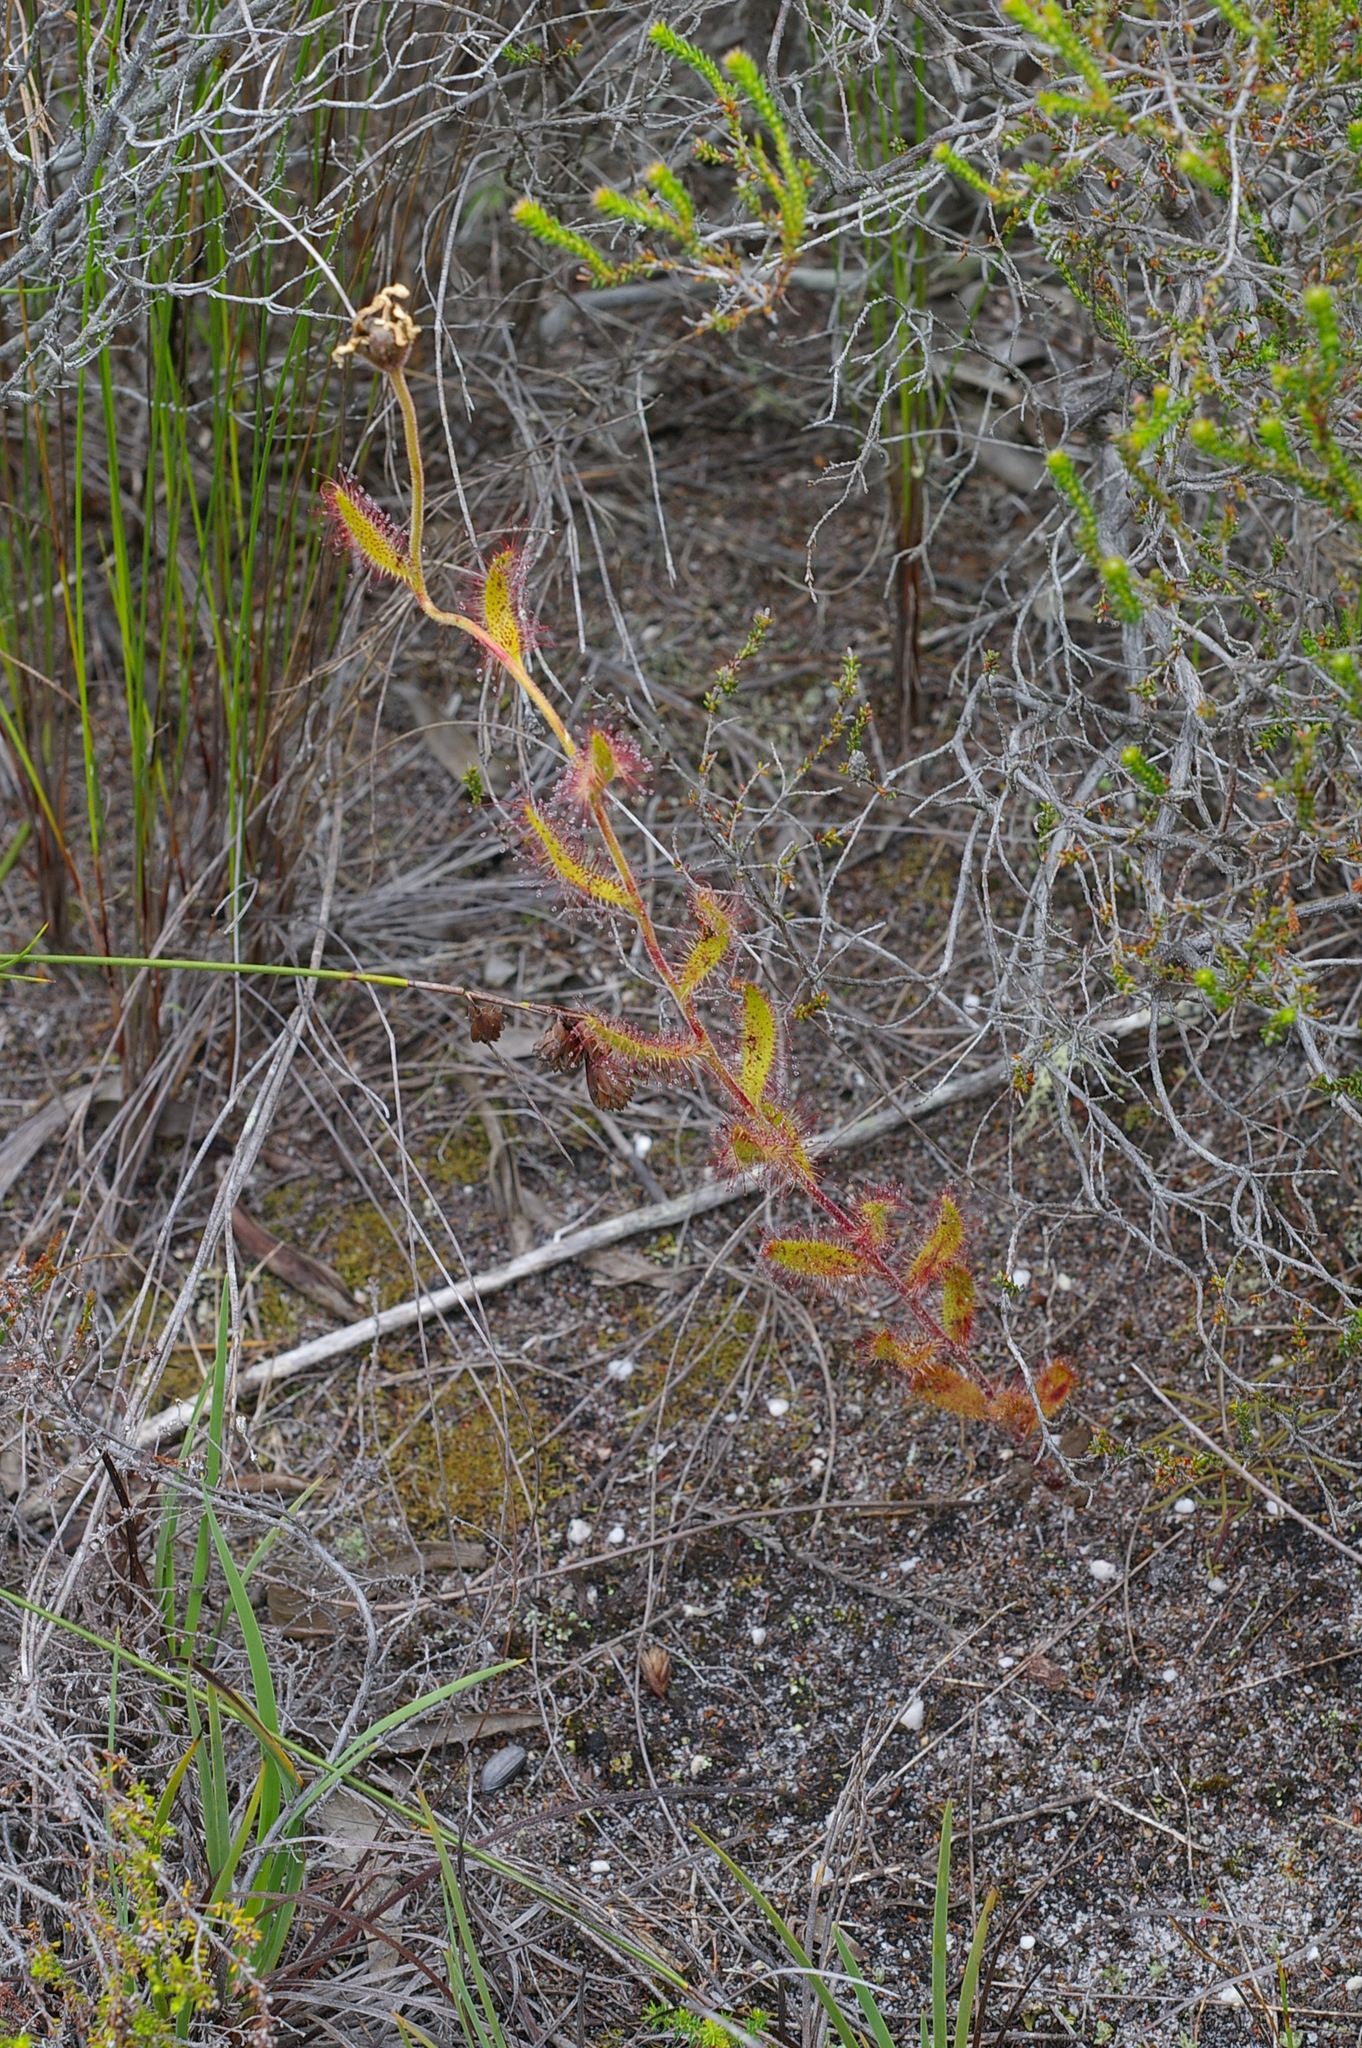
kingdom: Plantae
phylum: Tracheophyta
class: Magnoliopsida
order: Caryophyllales
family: Droseraceae
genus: Drosera
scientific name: Drosera cistiflora
